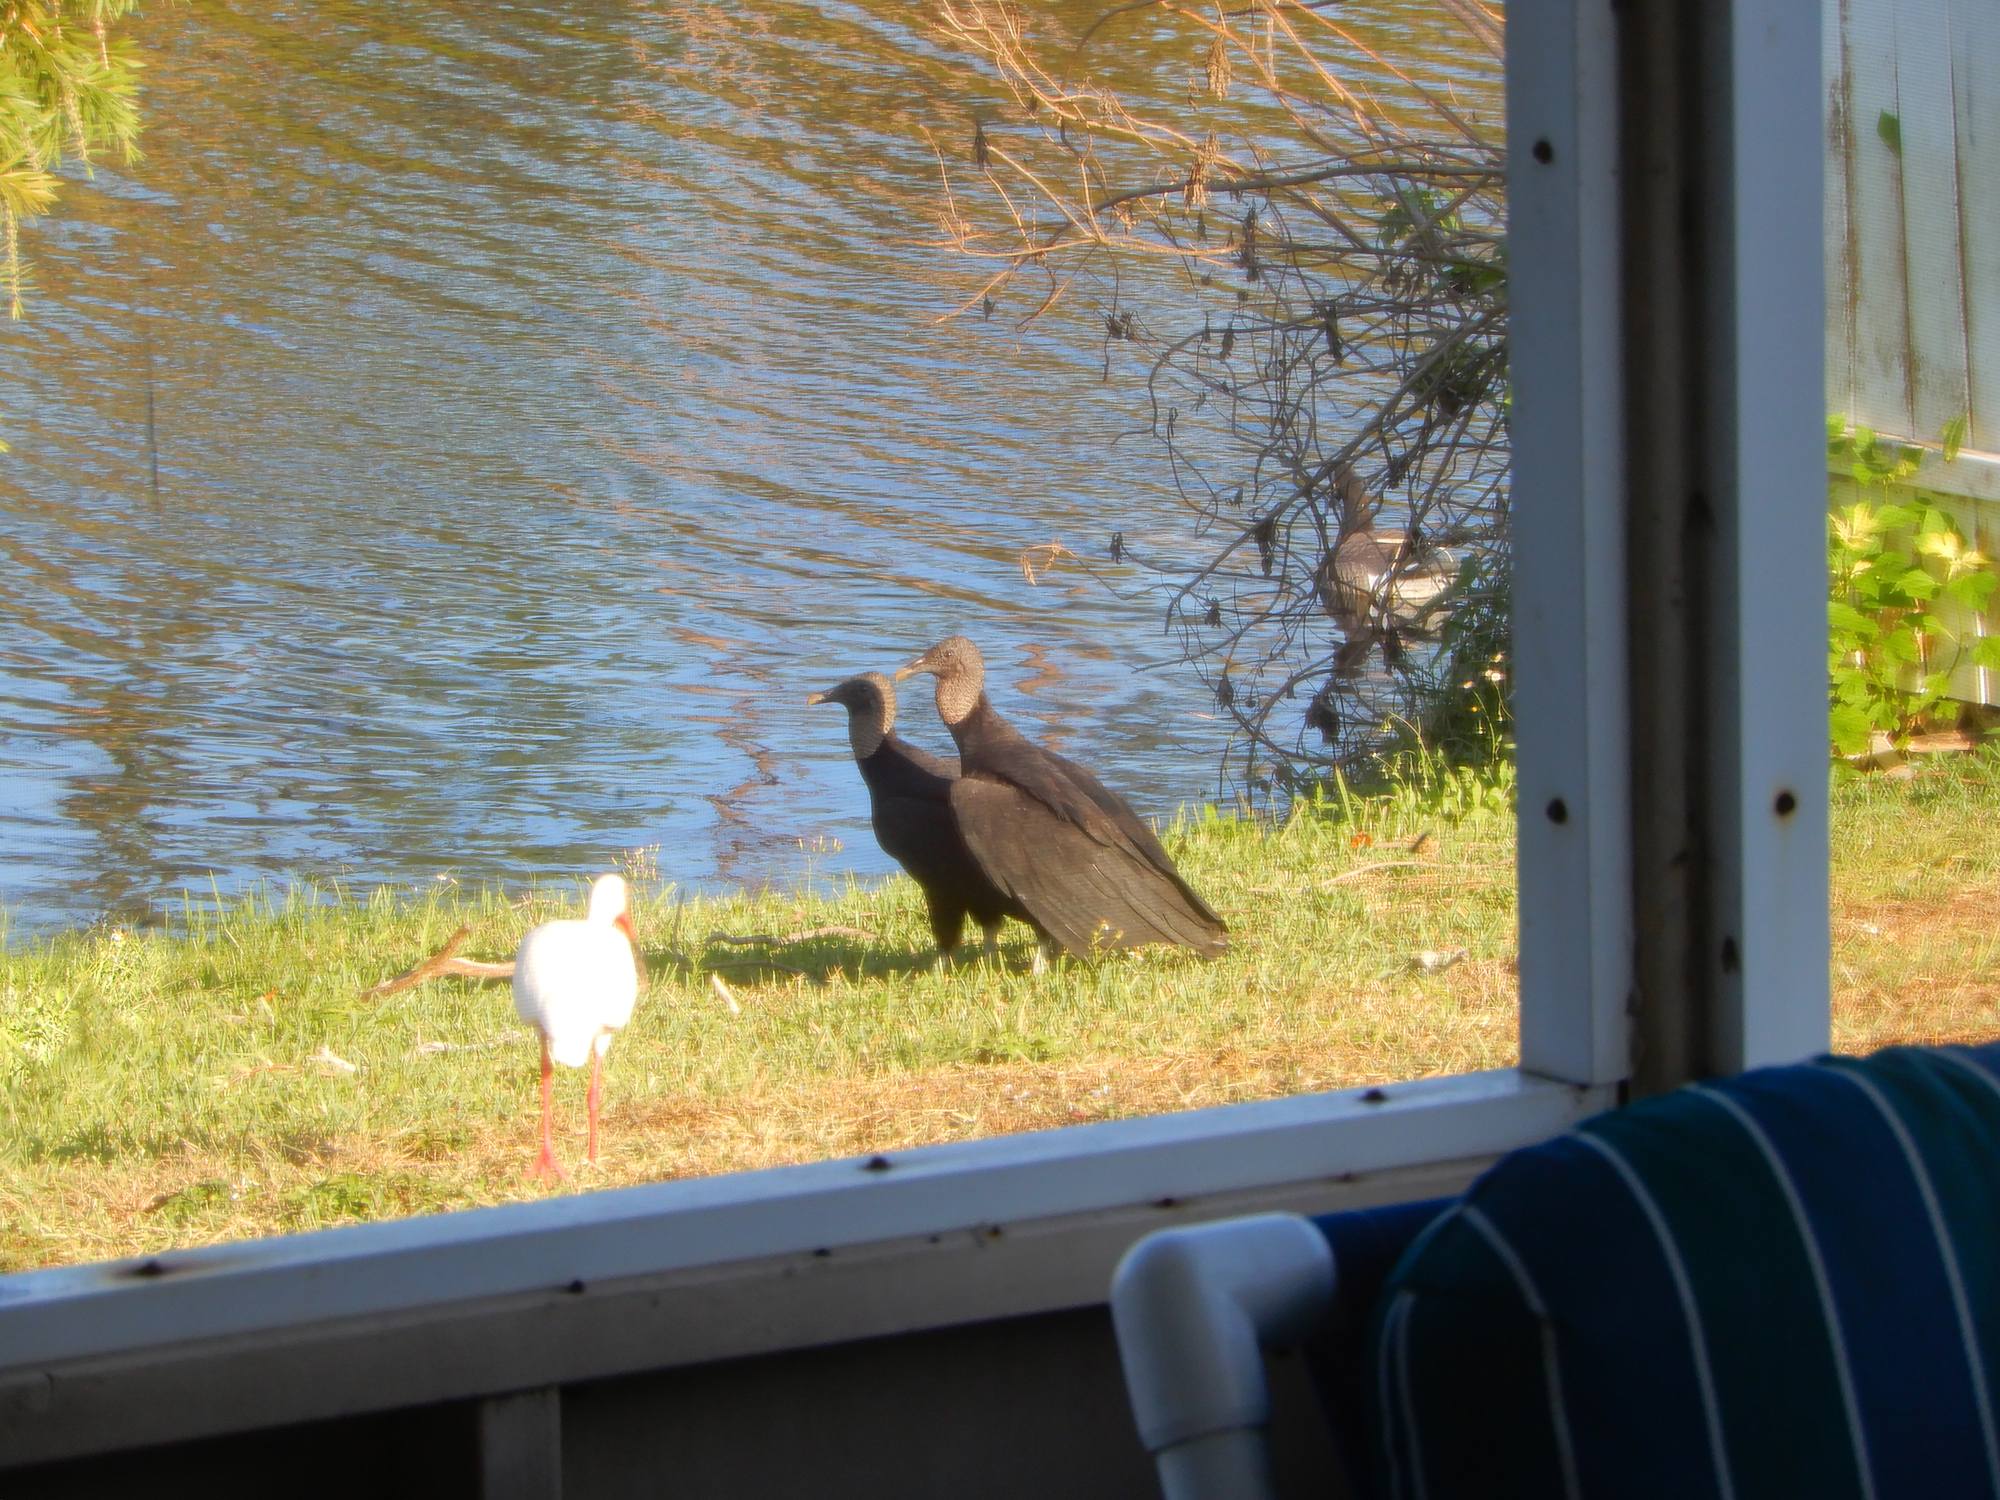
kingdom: Animalia
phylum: Chordata
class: Aves
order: Accipitriformes
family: Cathartidae
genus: Coragyps
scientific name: Coragyps atratus
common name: Black vulture
